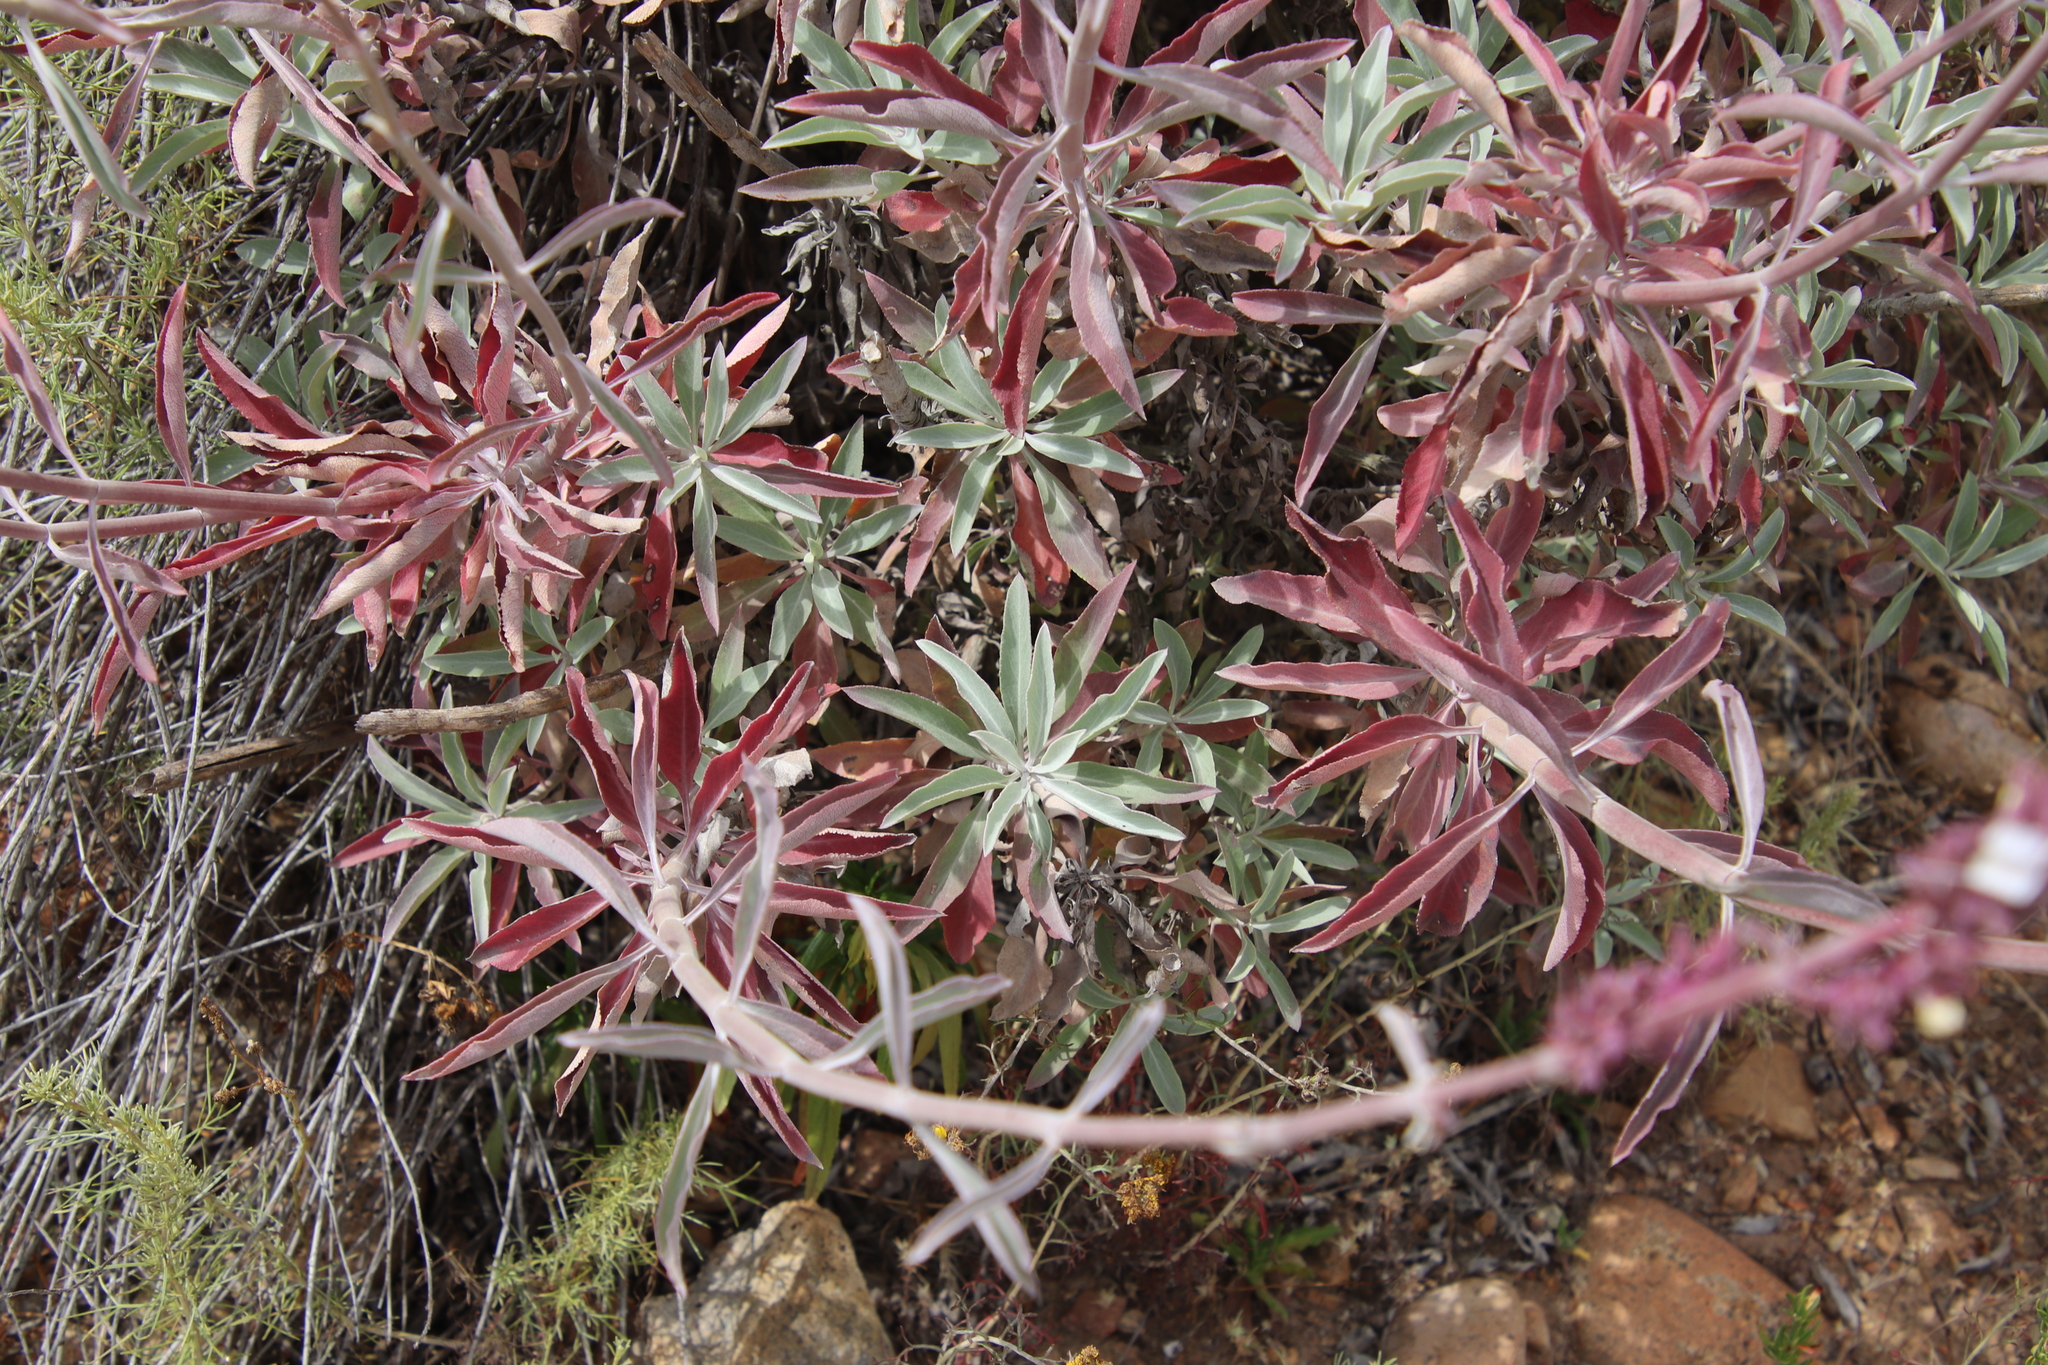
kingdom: Plantae
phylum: Tracheophyta
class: Magnoliopsida
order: Lamiales
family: Lamiaceae
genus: Salvia
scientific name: Salvia apiana
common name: White sage
